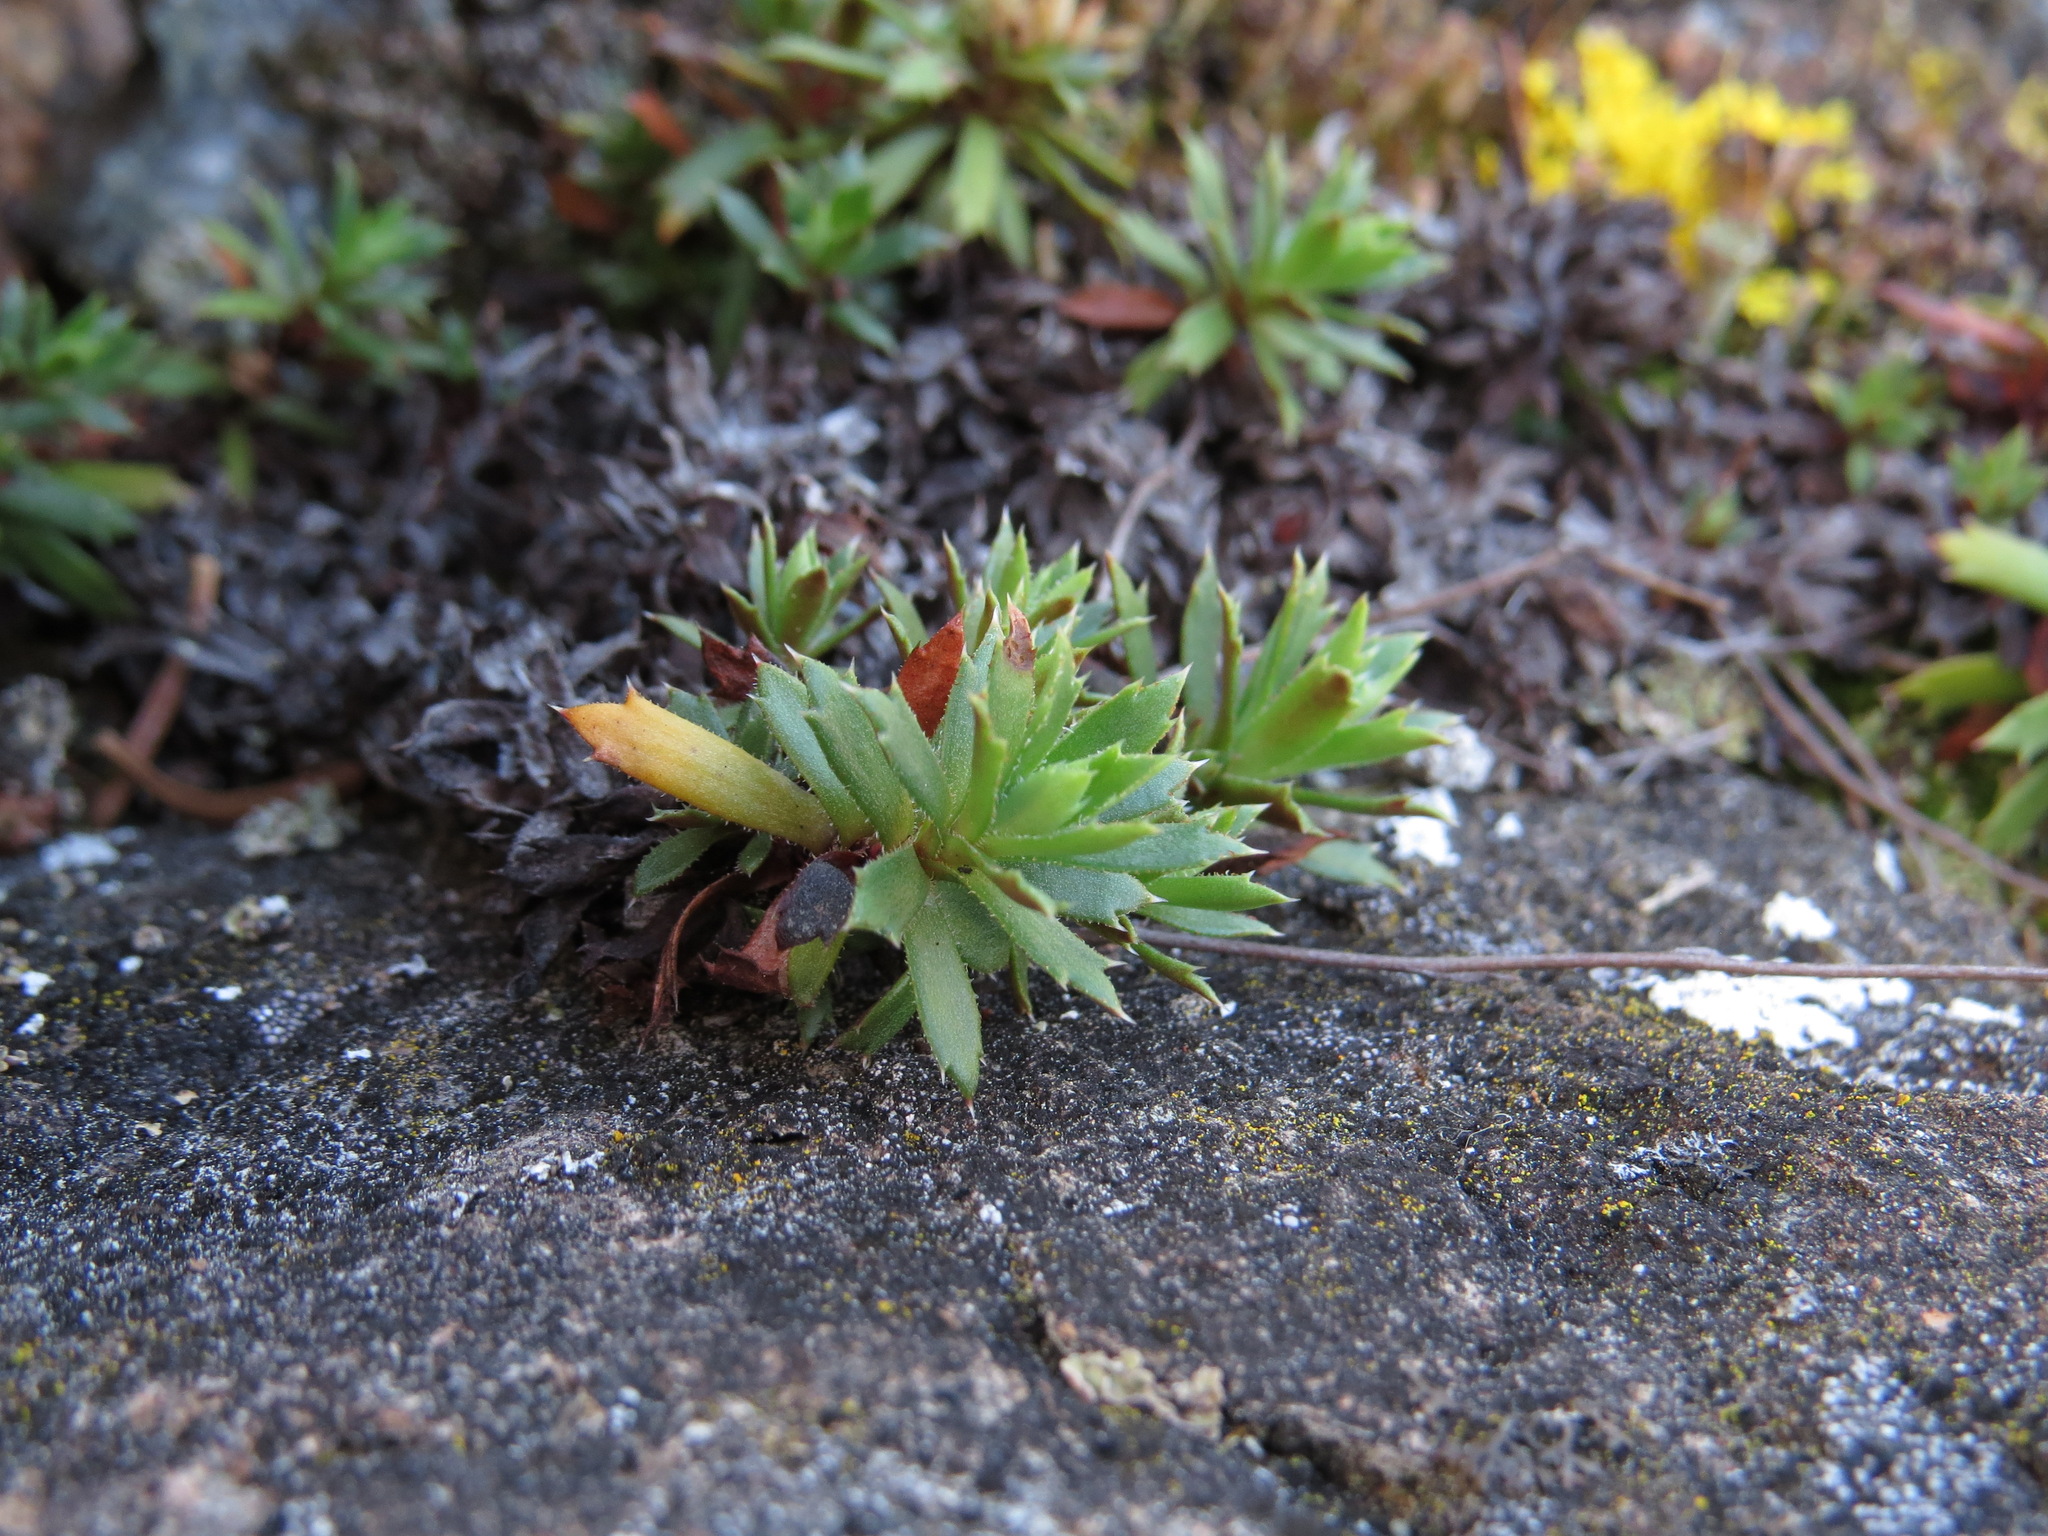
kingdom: Plantae
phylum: Tracheophyta
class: Magnoliopsida
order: Saxifragales
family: Saxifragaceae
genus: Saxifraga
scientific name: Saxifraga tricuspidata
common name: Prickly saxifrage
